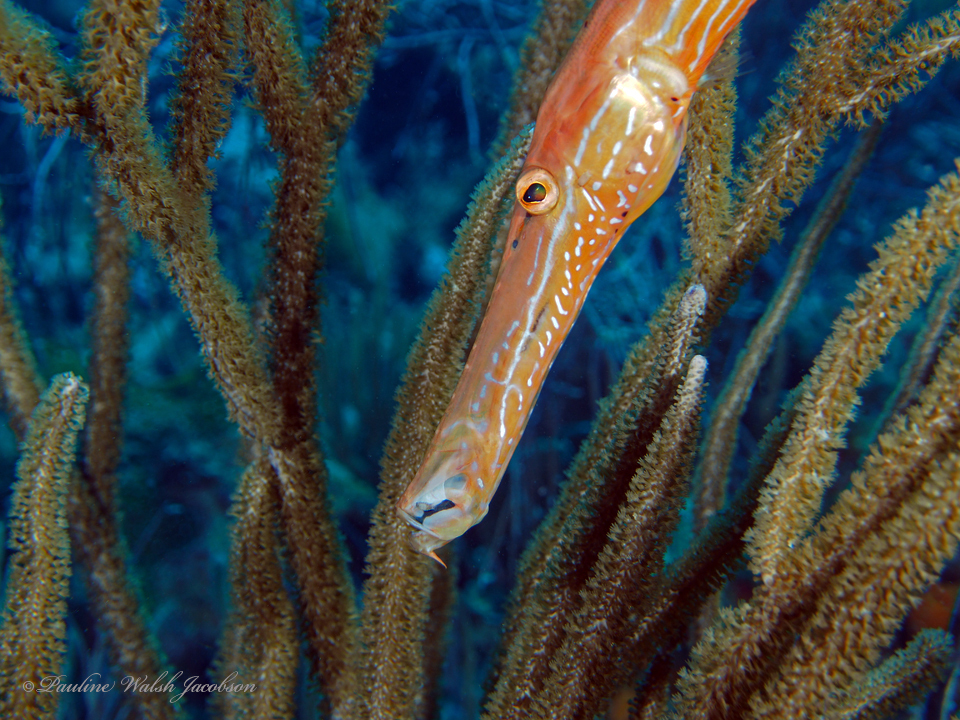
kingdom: Animalia
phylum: Chordata
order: Syngnathiformes
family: Aulostomidae
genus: Aulostomus
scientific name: Aulostomus maculatus
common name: West atlantic trumpetfish
